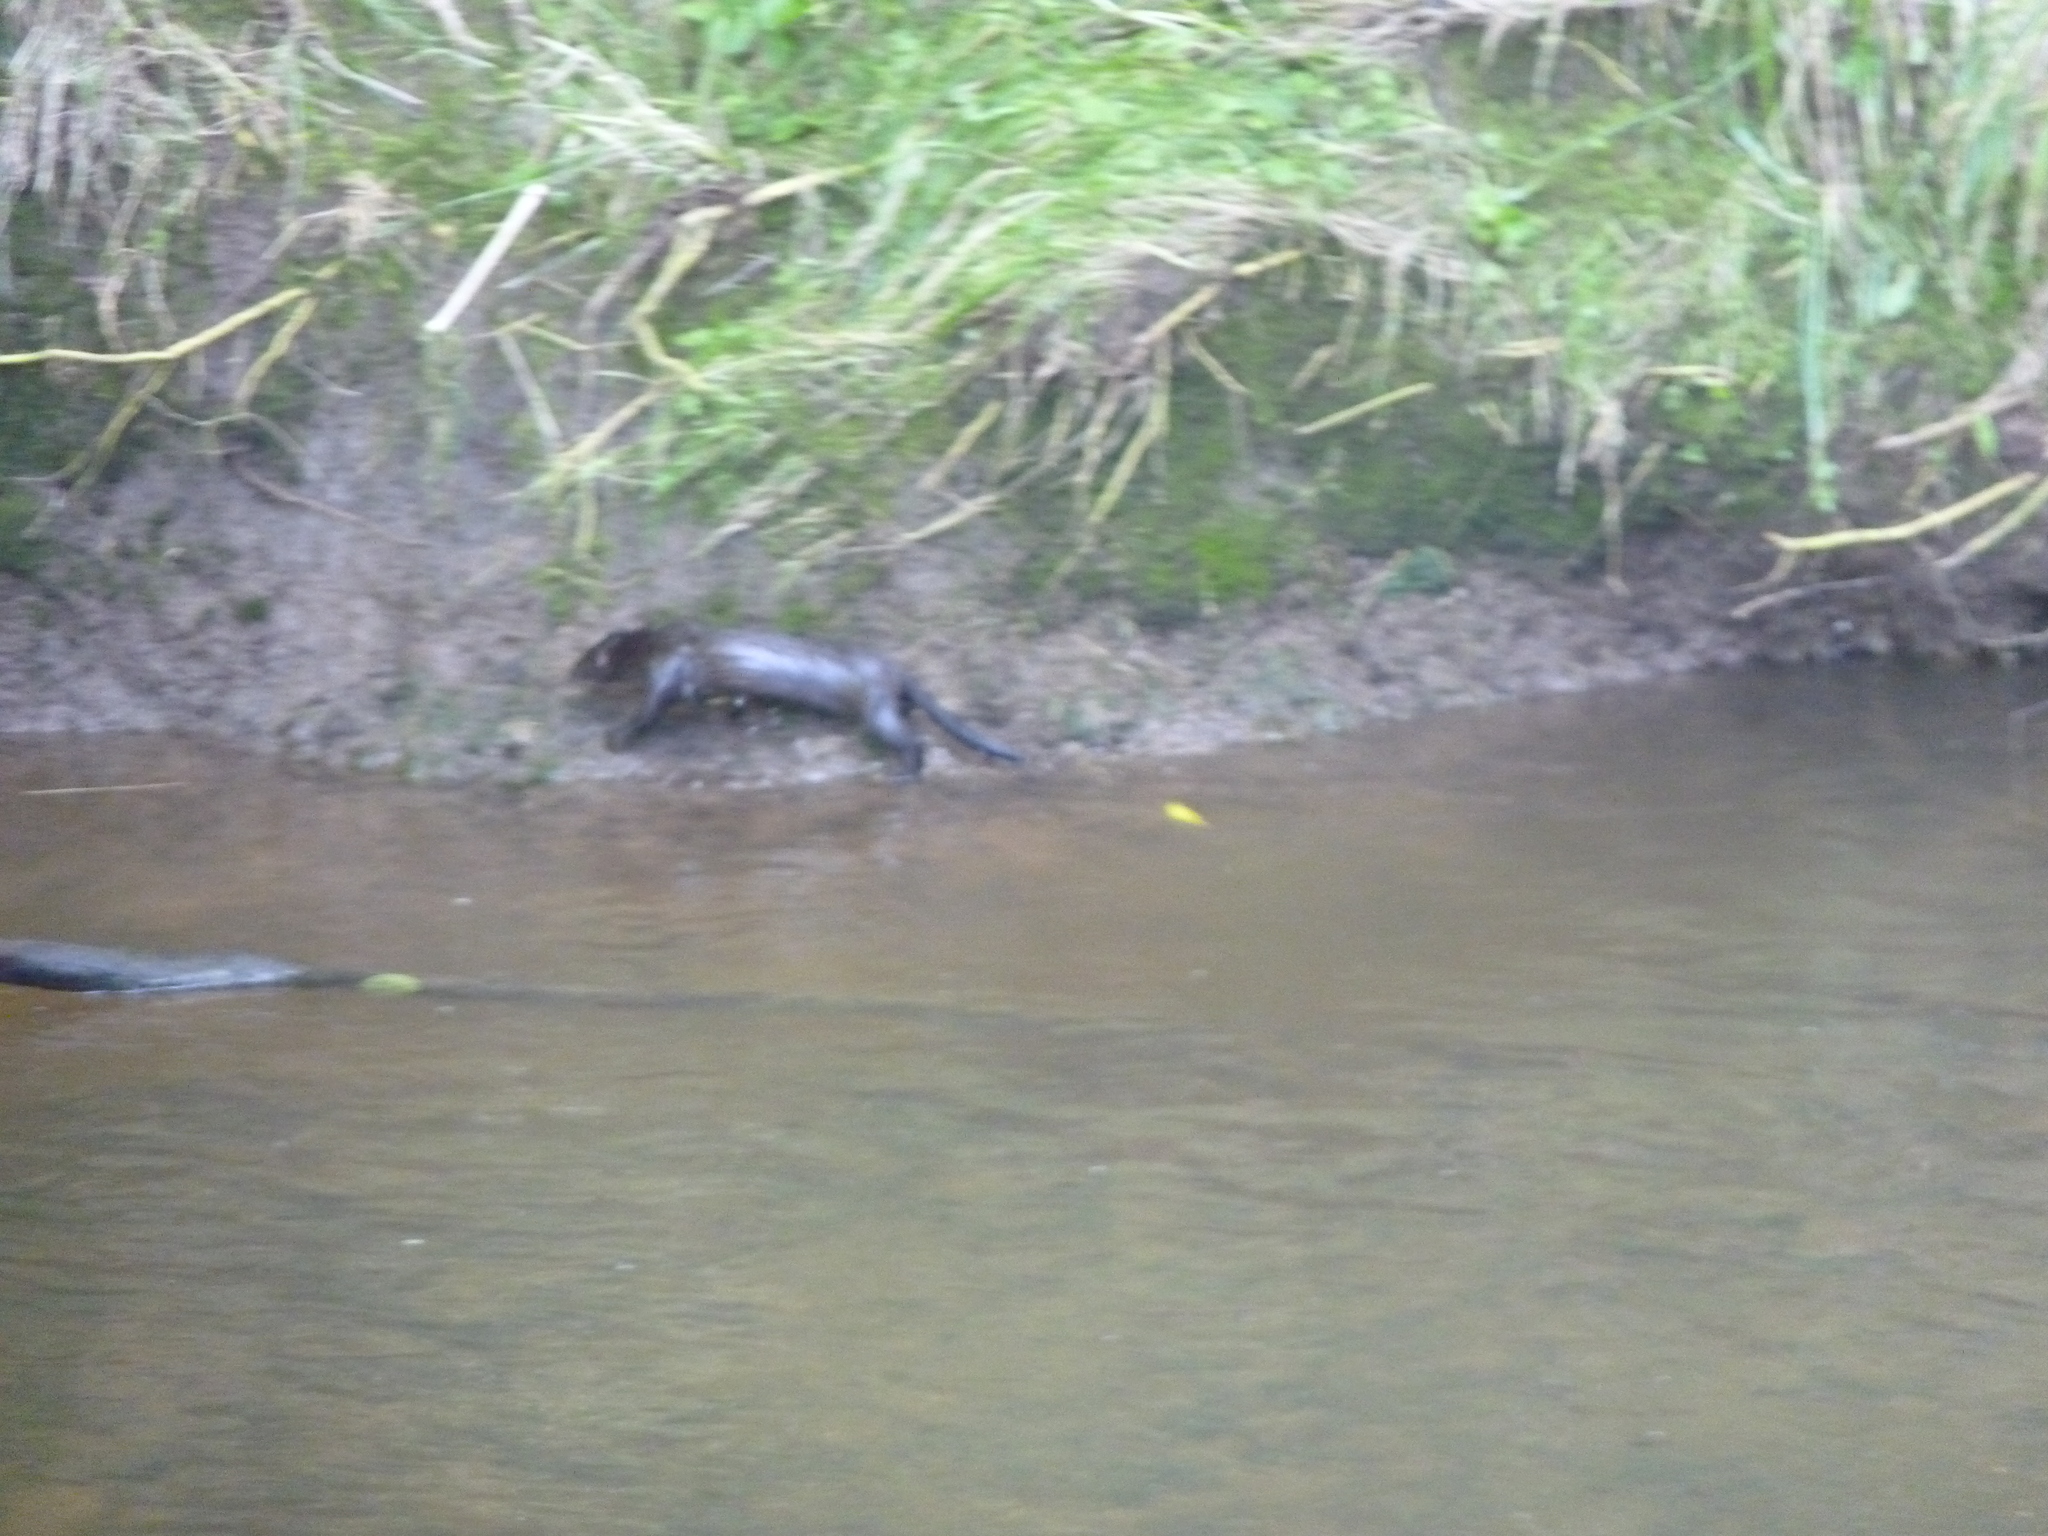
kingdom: Animalia
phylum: Chordata
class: Mammalia
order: Carnivora
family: Mustelidae
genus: Mustela
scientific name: Mustela
